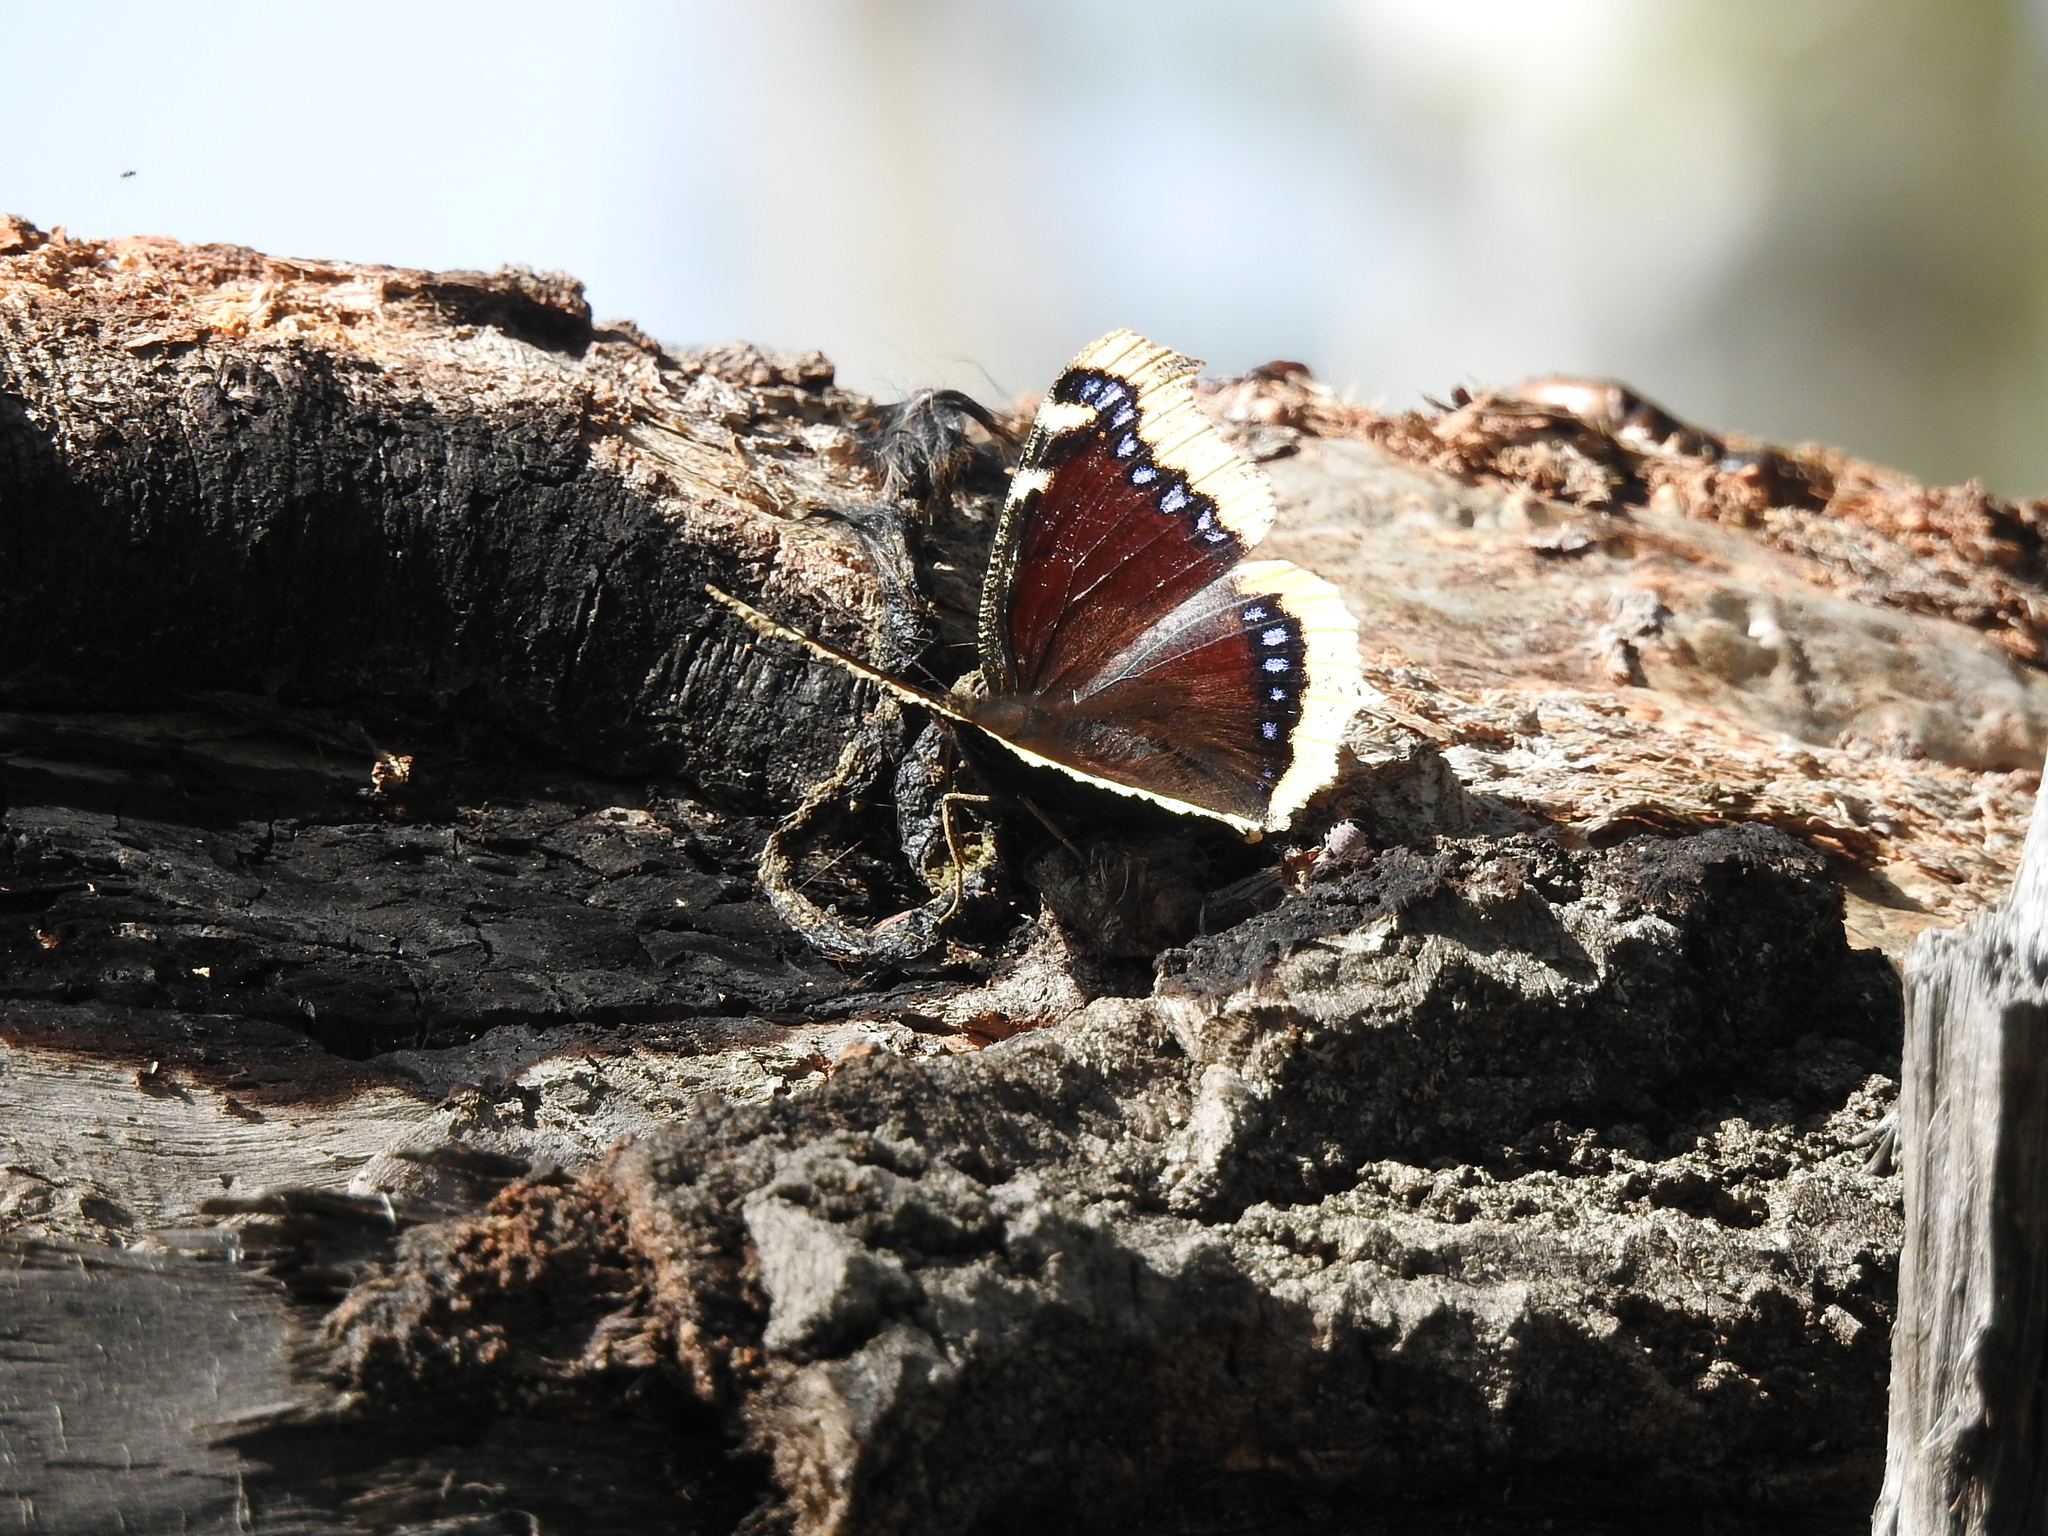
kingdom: Animalia
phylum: Arthropoda
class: Insecta
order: Lepidoptera
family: Nymphalidae
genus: Nymphalis
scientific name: Nymphalis antiopa
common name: Camberwell beauty
